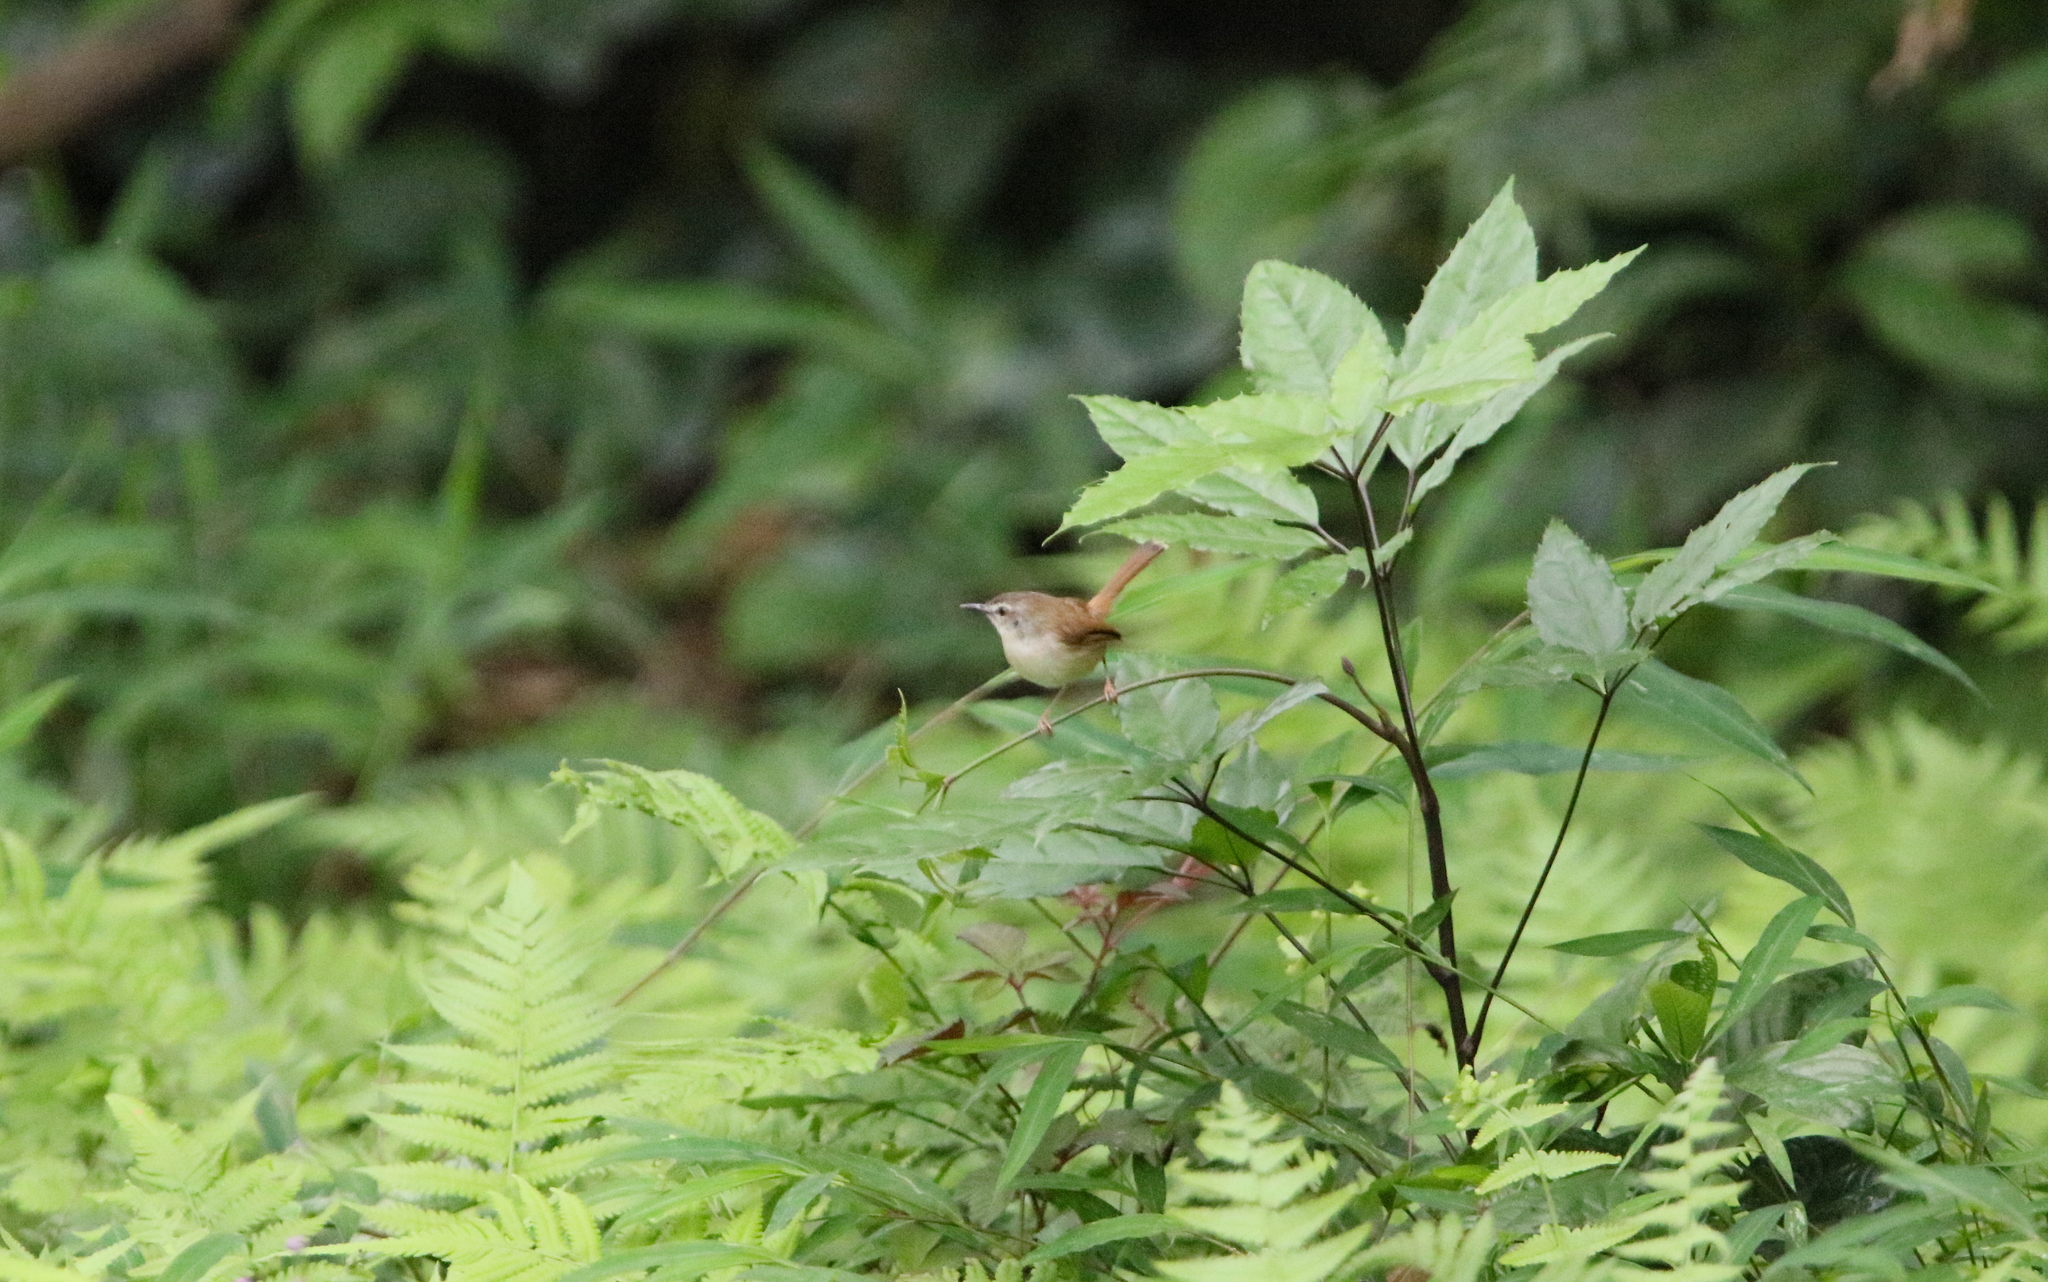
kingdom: Animalia
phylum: Chordata
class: Aves
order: Passeriformes
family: Cisticolidae
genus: Prinia
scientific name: Prinia rufescens
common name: Rufescent prinia
